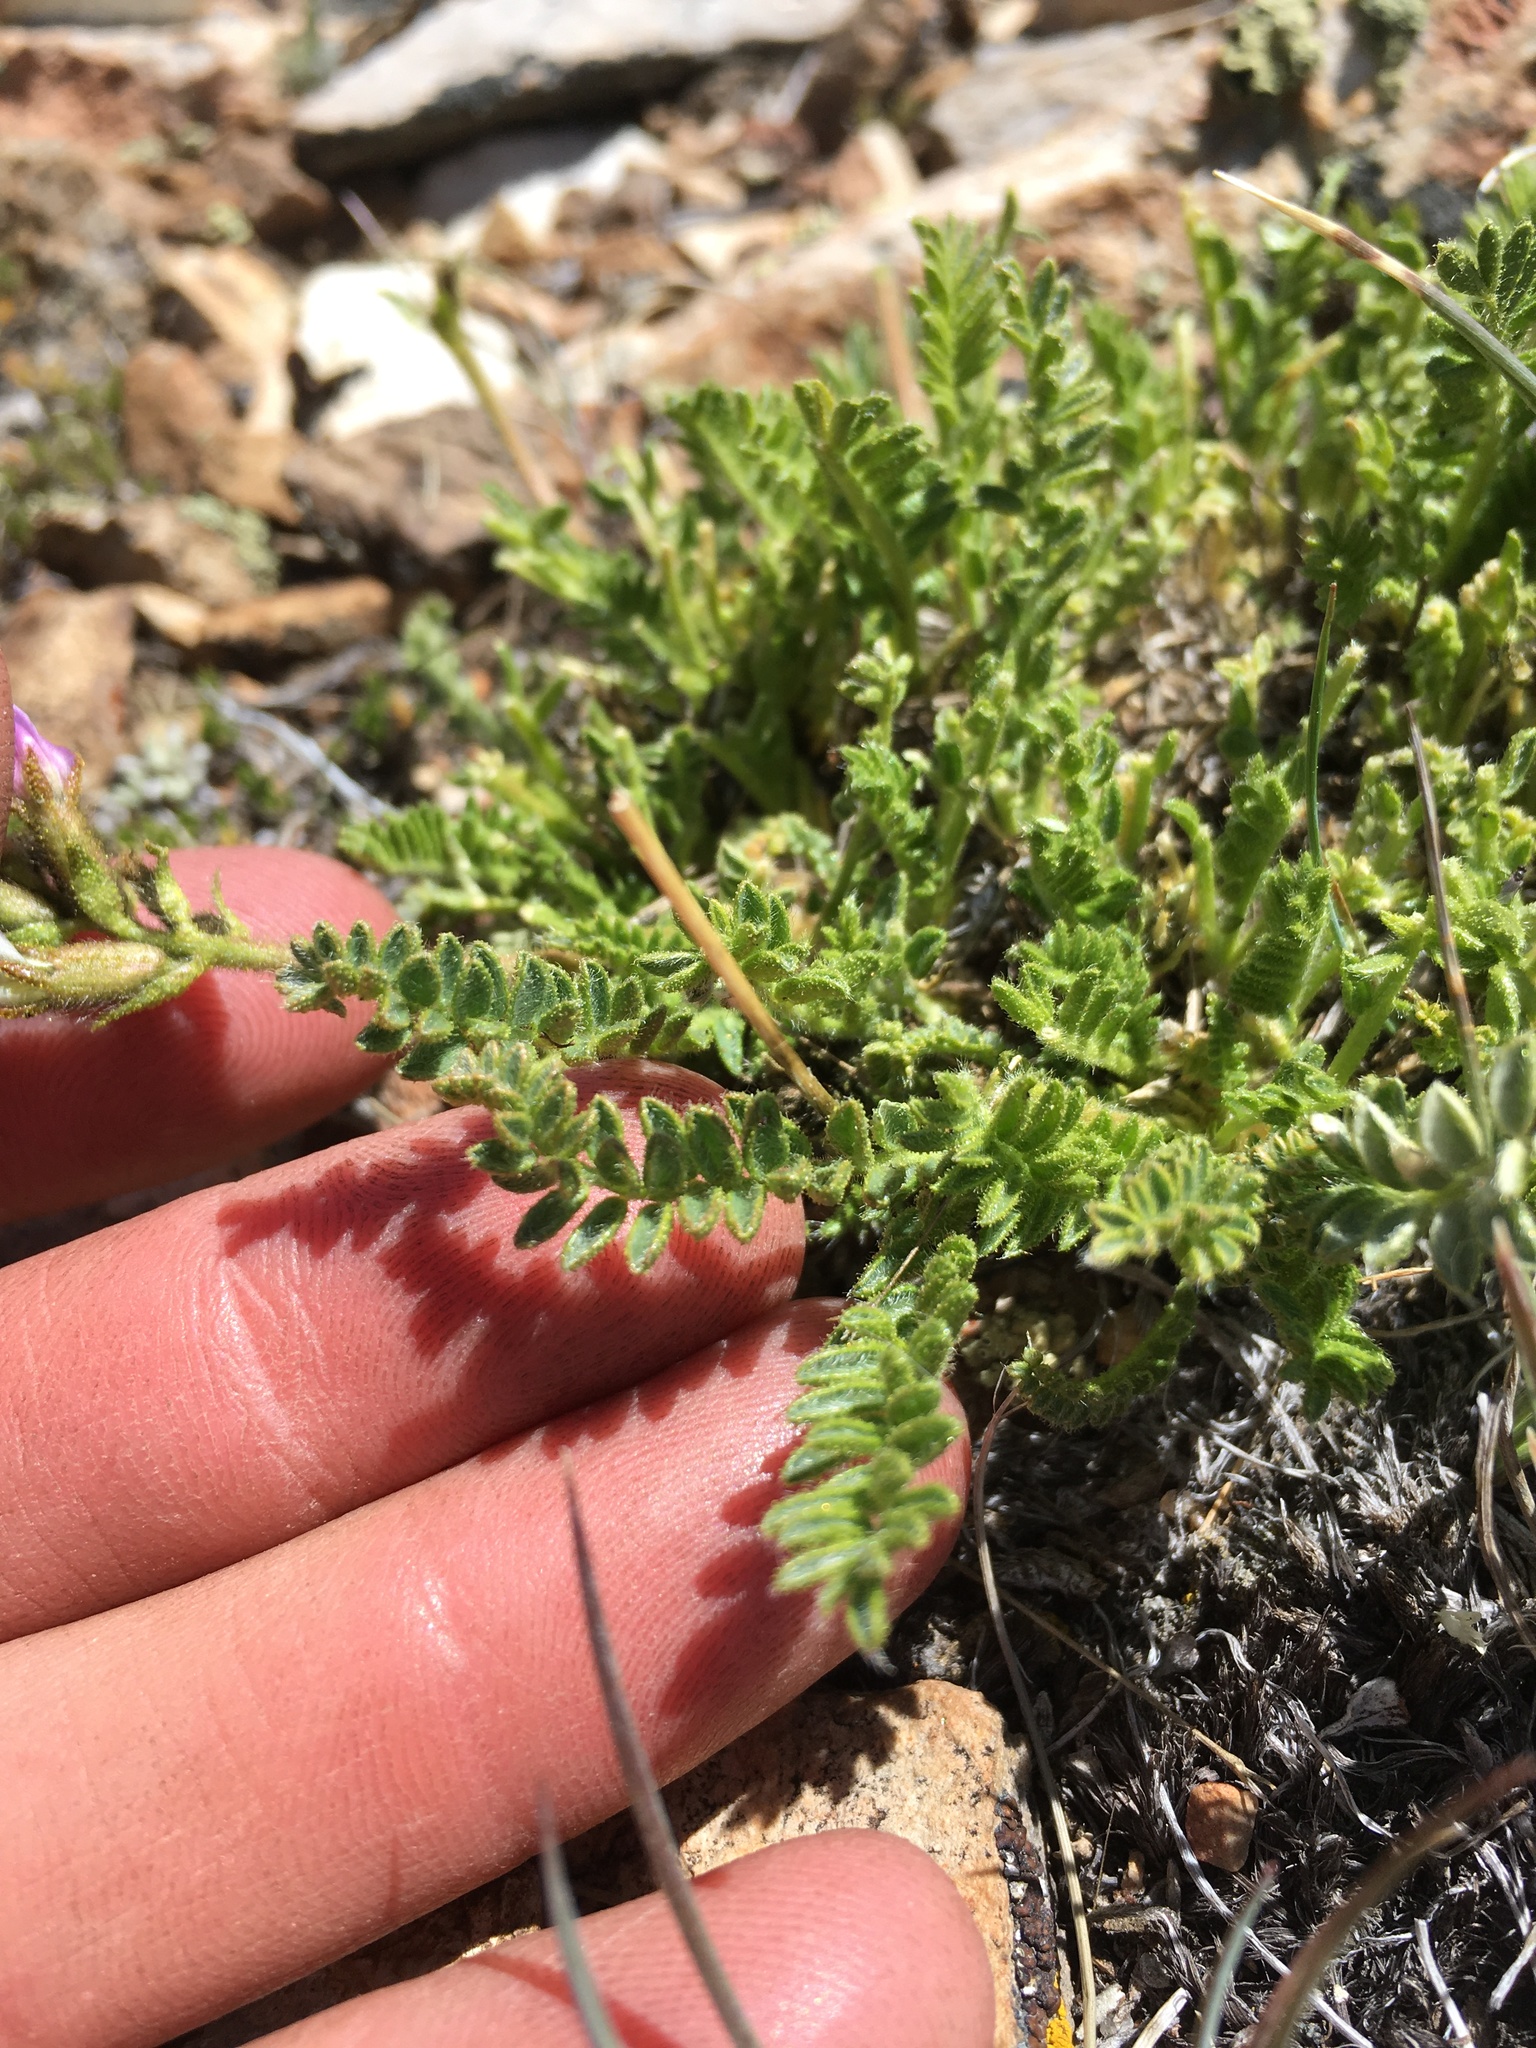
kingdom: Plantae
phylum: Tracheophyta
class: Magnoliopsida
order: Fabales
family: Fabaceae
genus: Oxytropis
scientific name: Oxytropis borealis
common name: Boreal locoweed
